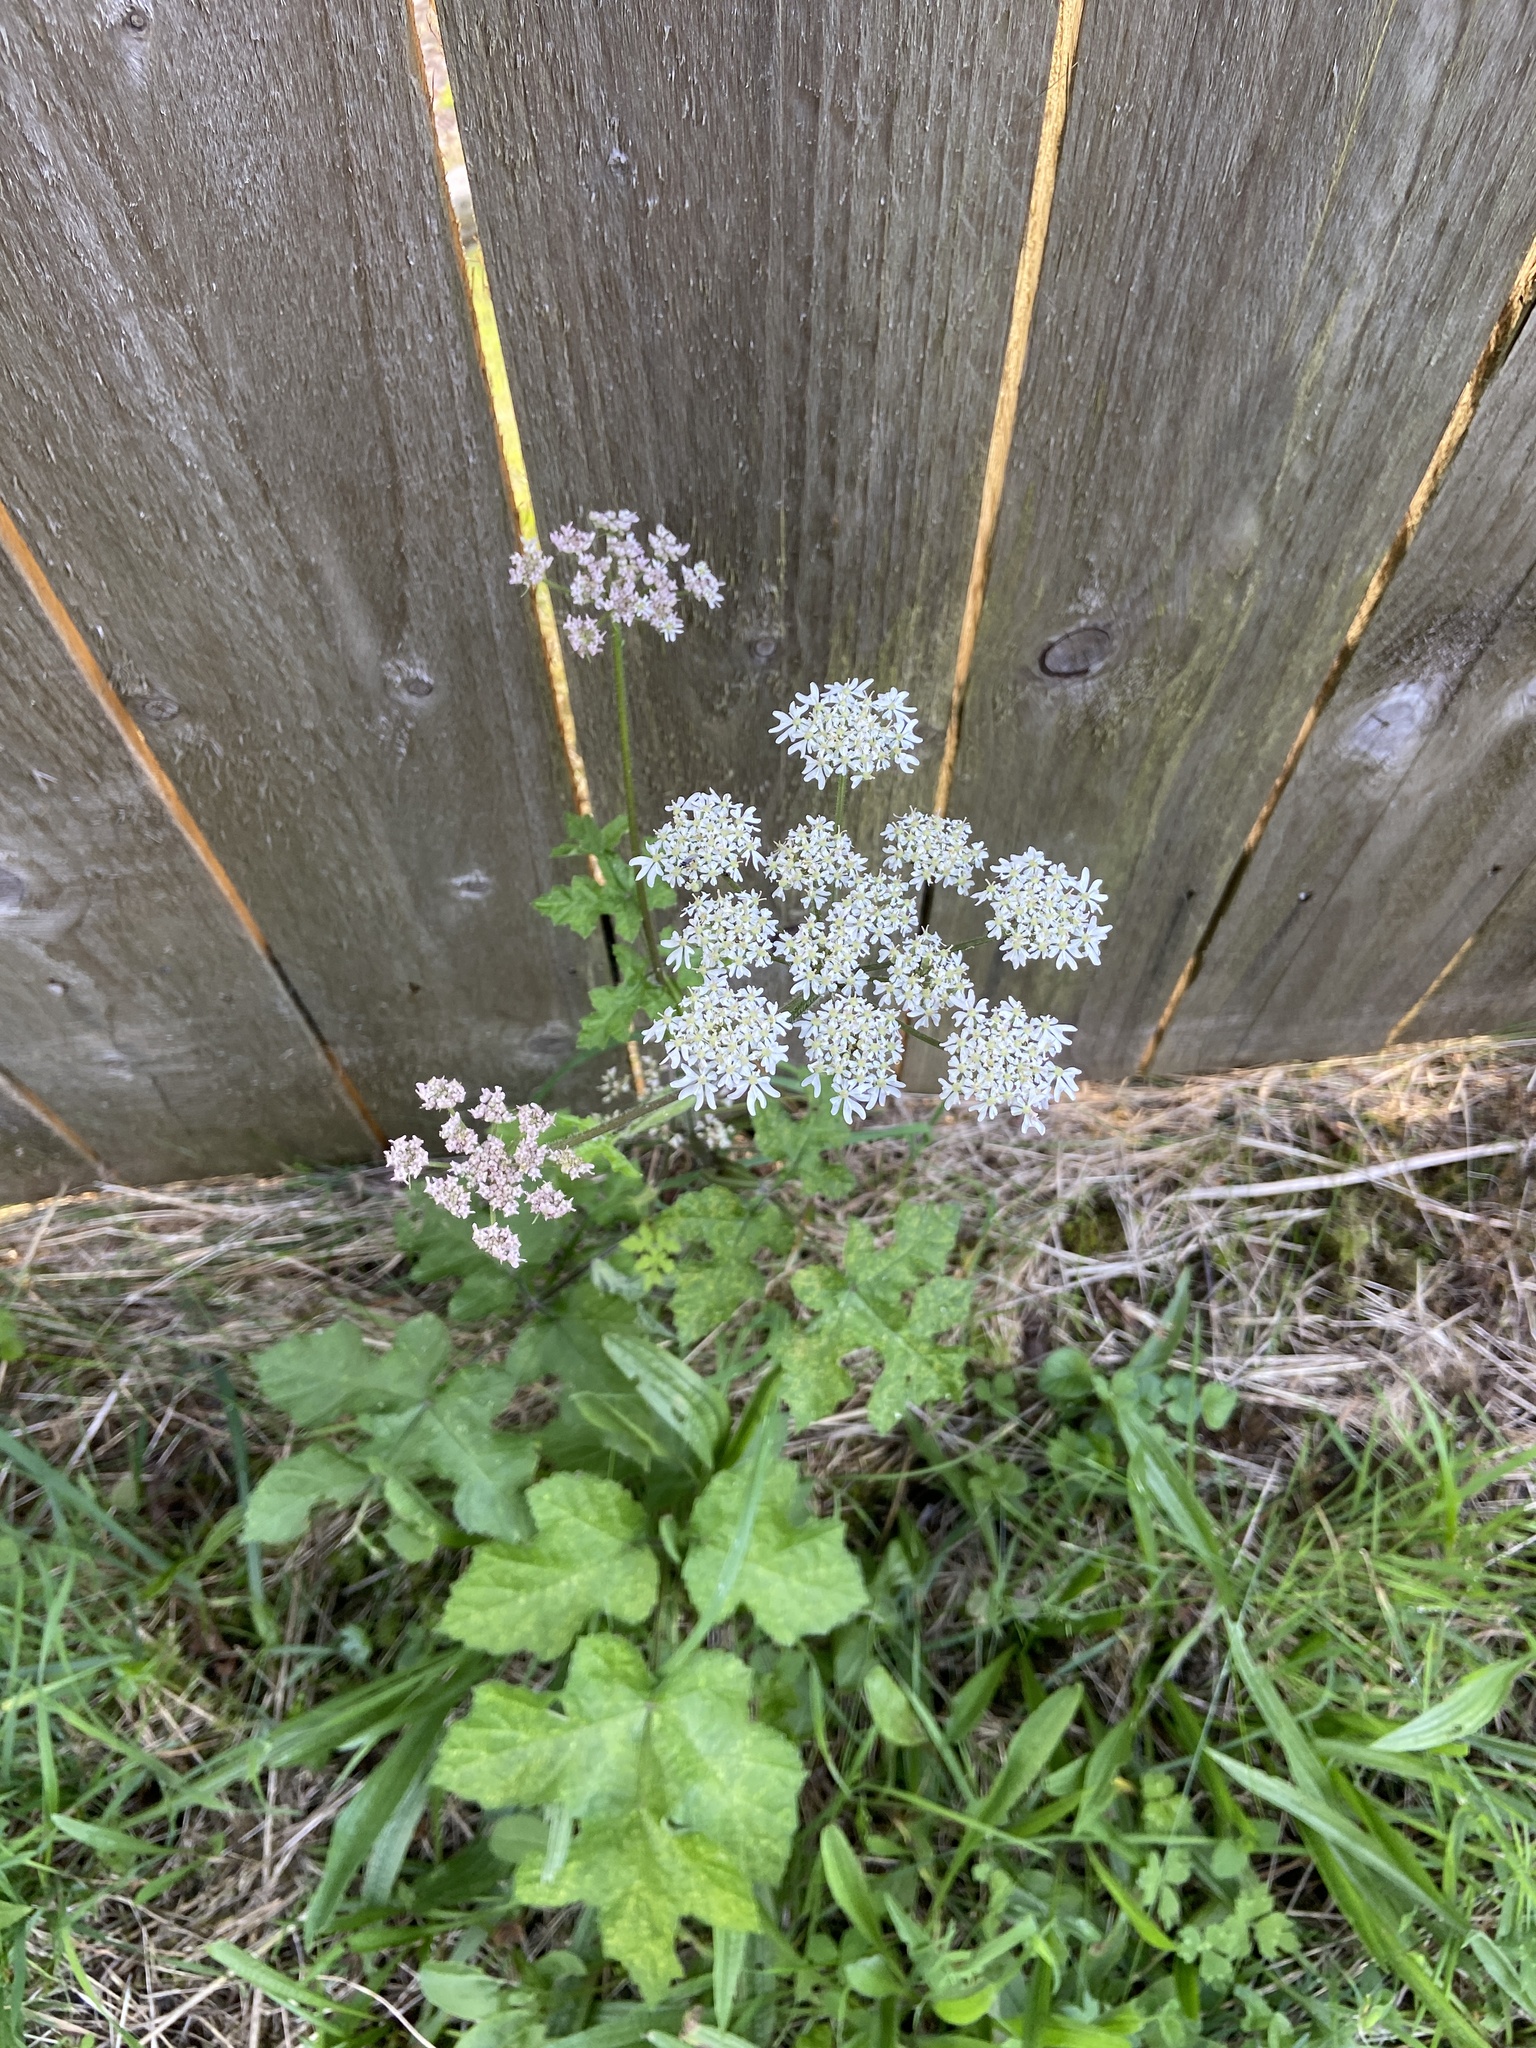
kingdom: Plantae
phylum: Tracheophyta
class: Magnoliopsida
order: Apiales
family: Apiaceae
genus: Heracleum
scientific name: Heracleum sphondylium
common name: Hogweed
